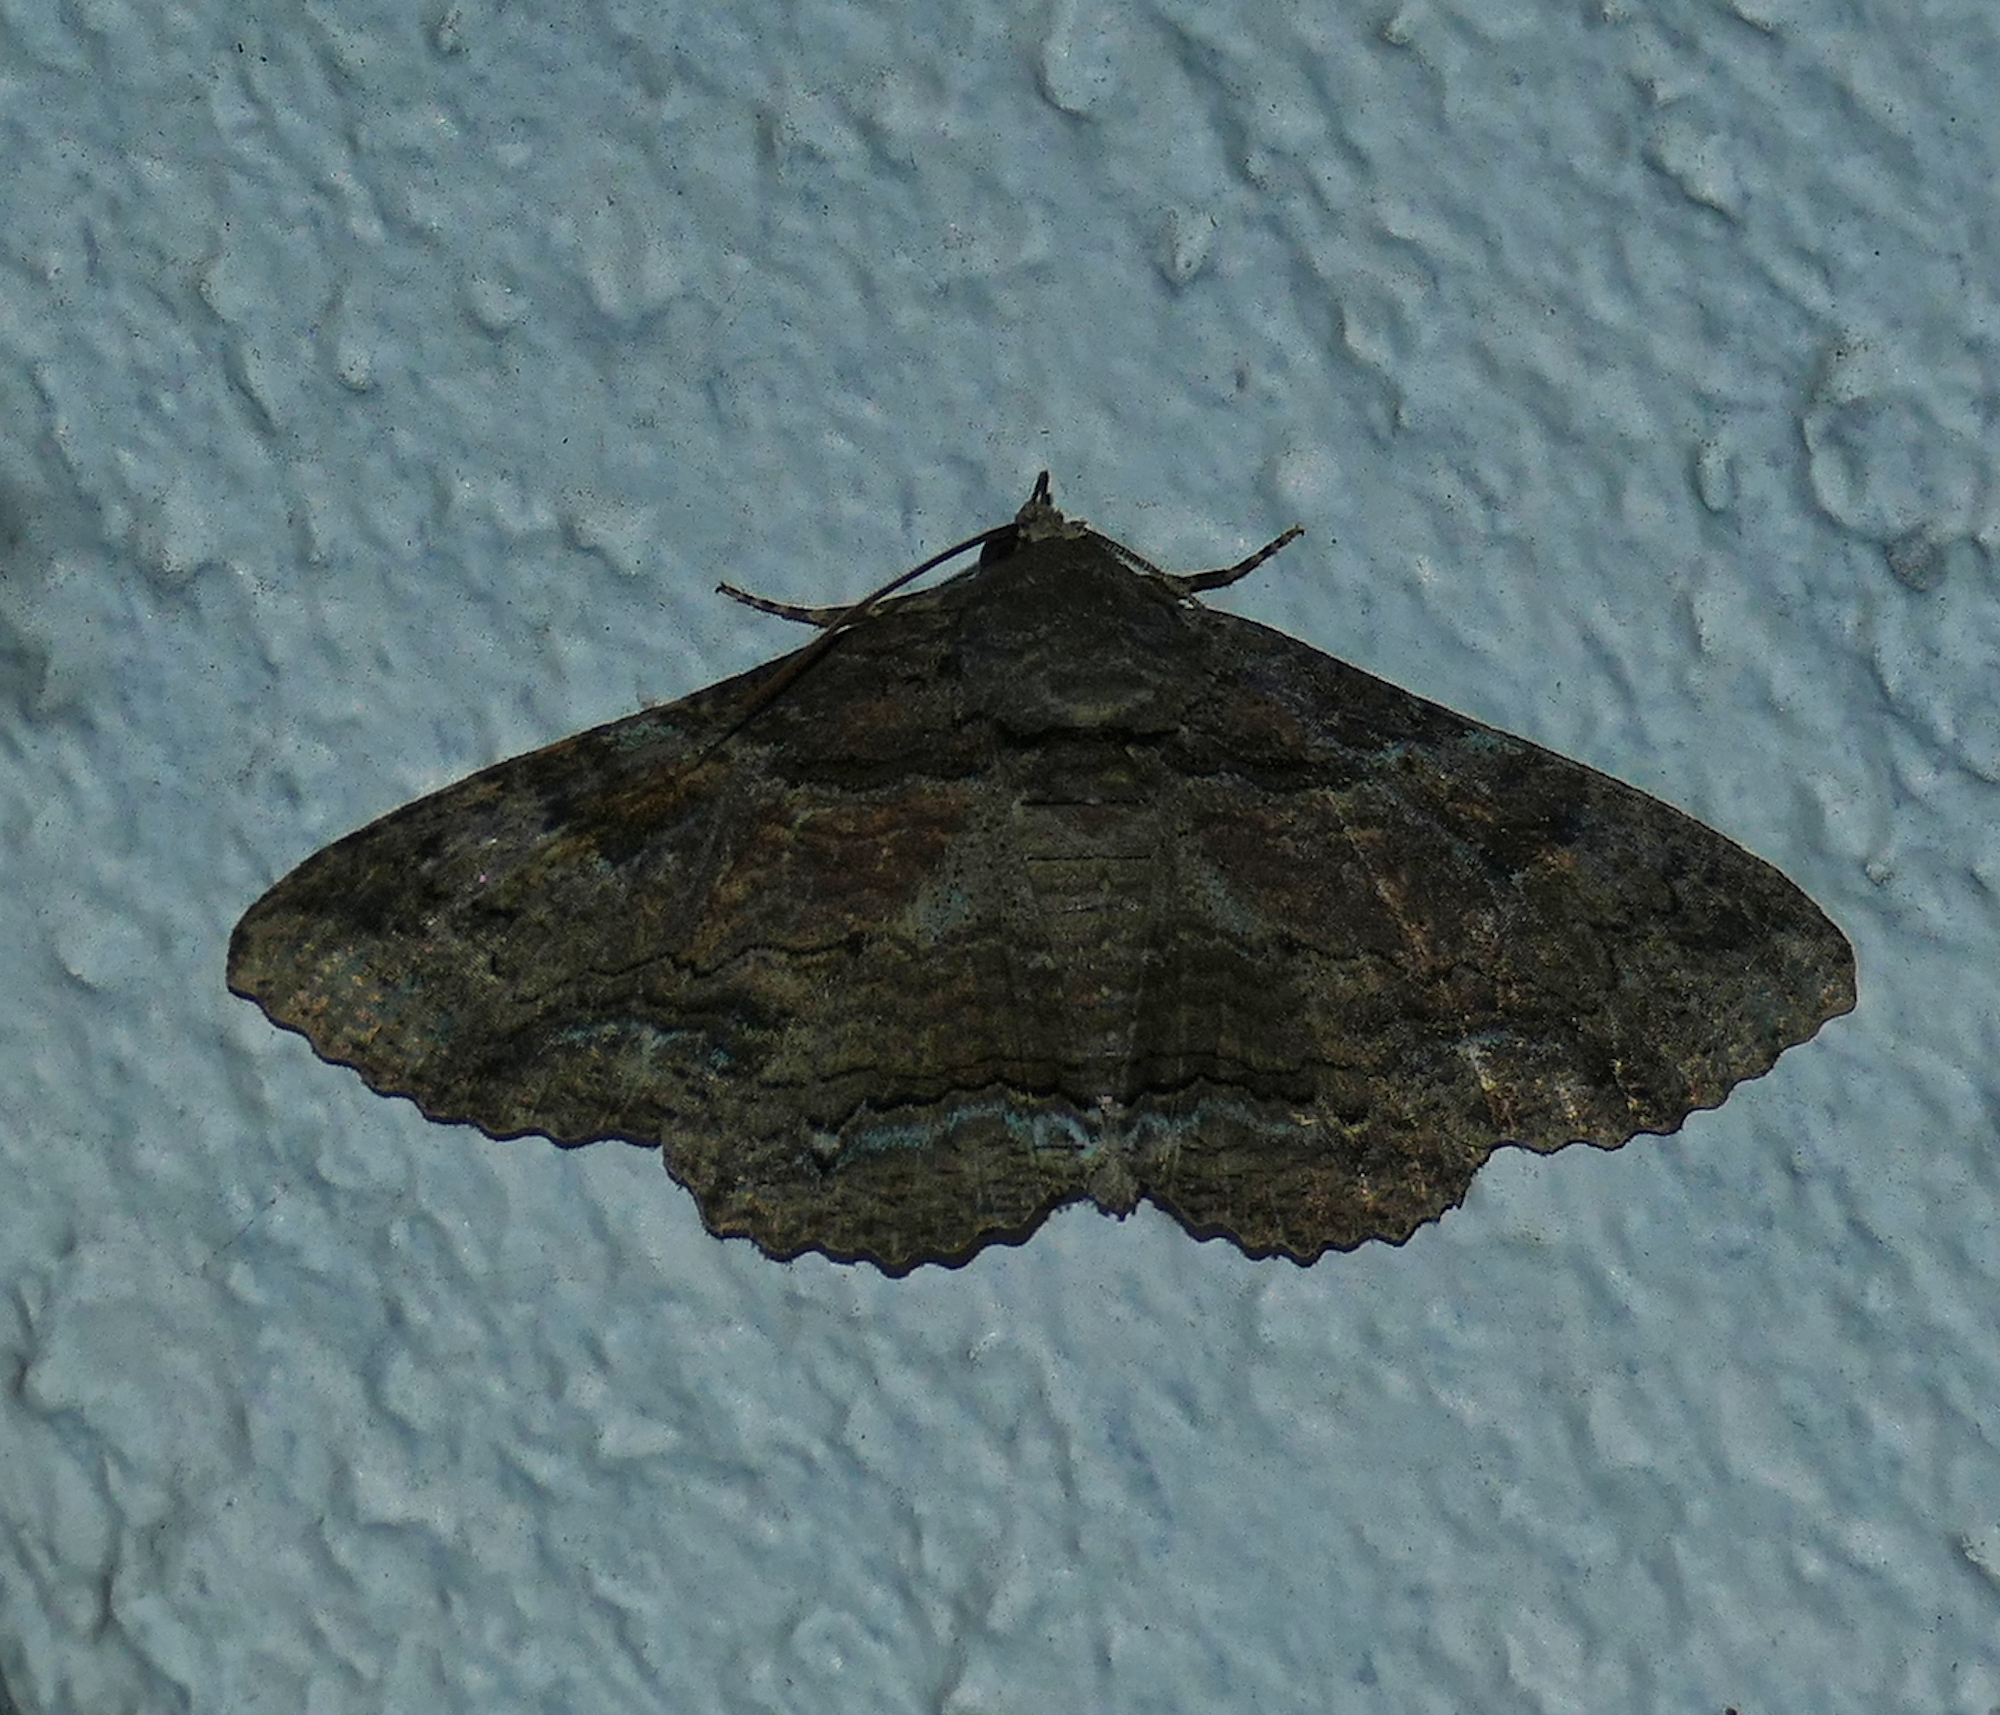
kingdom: Animalia
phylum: Arthropoda
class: Insecta
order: Lepidoptera
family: Erebidae
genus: Zale
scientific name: Zale lunata
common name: Lunate zale moth
